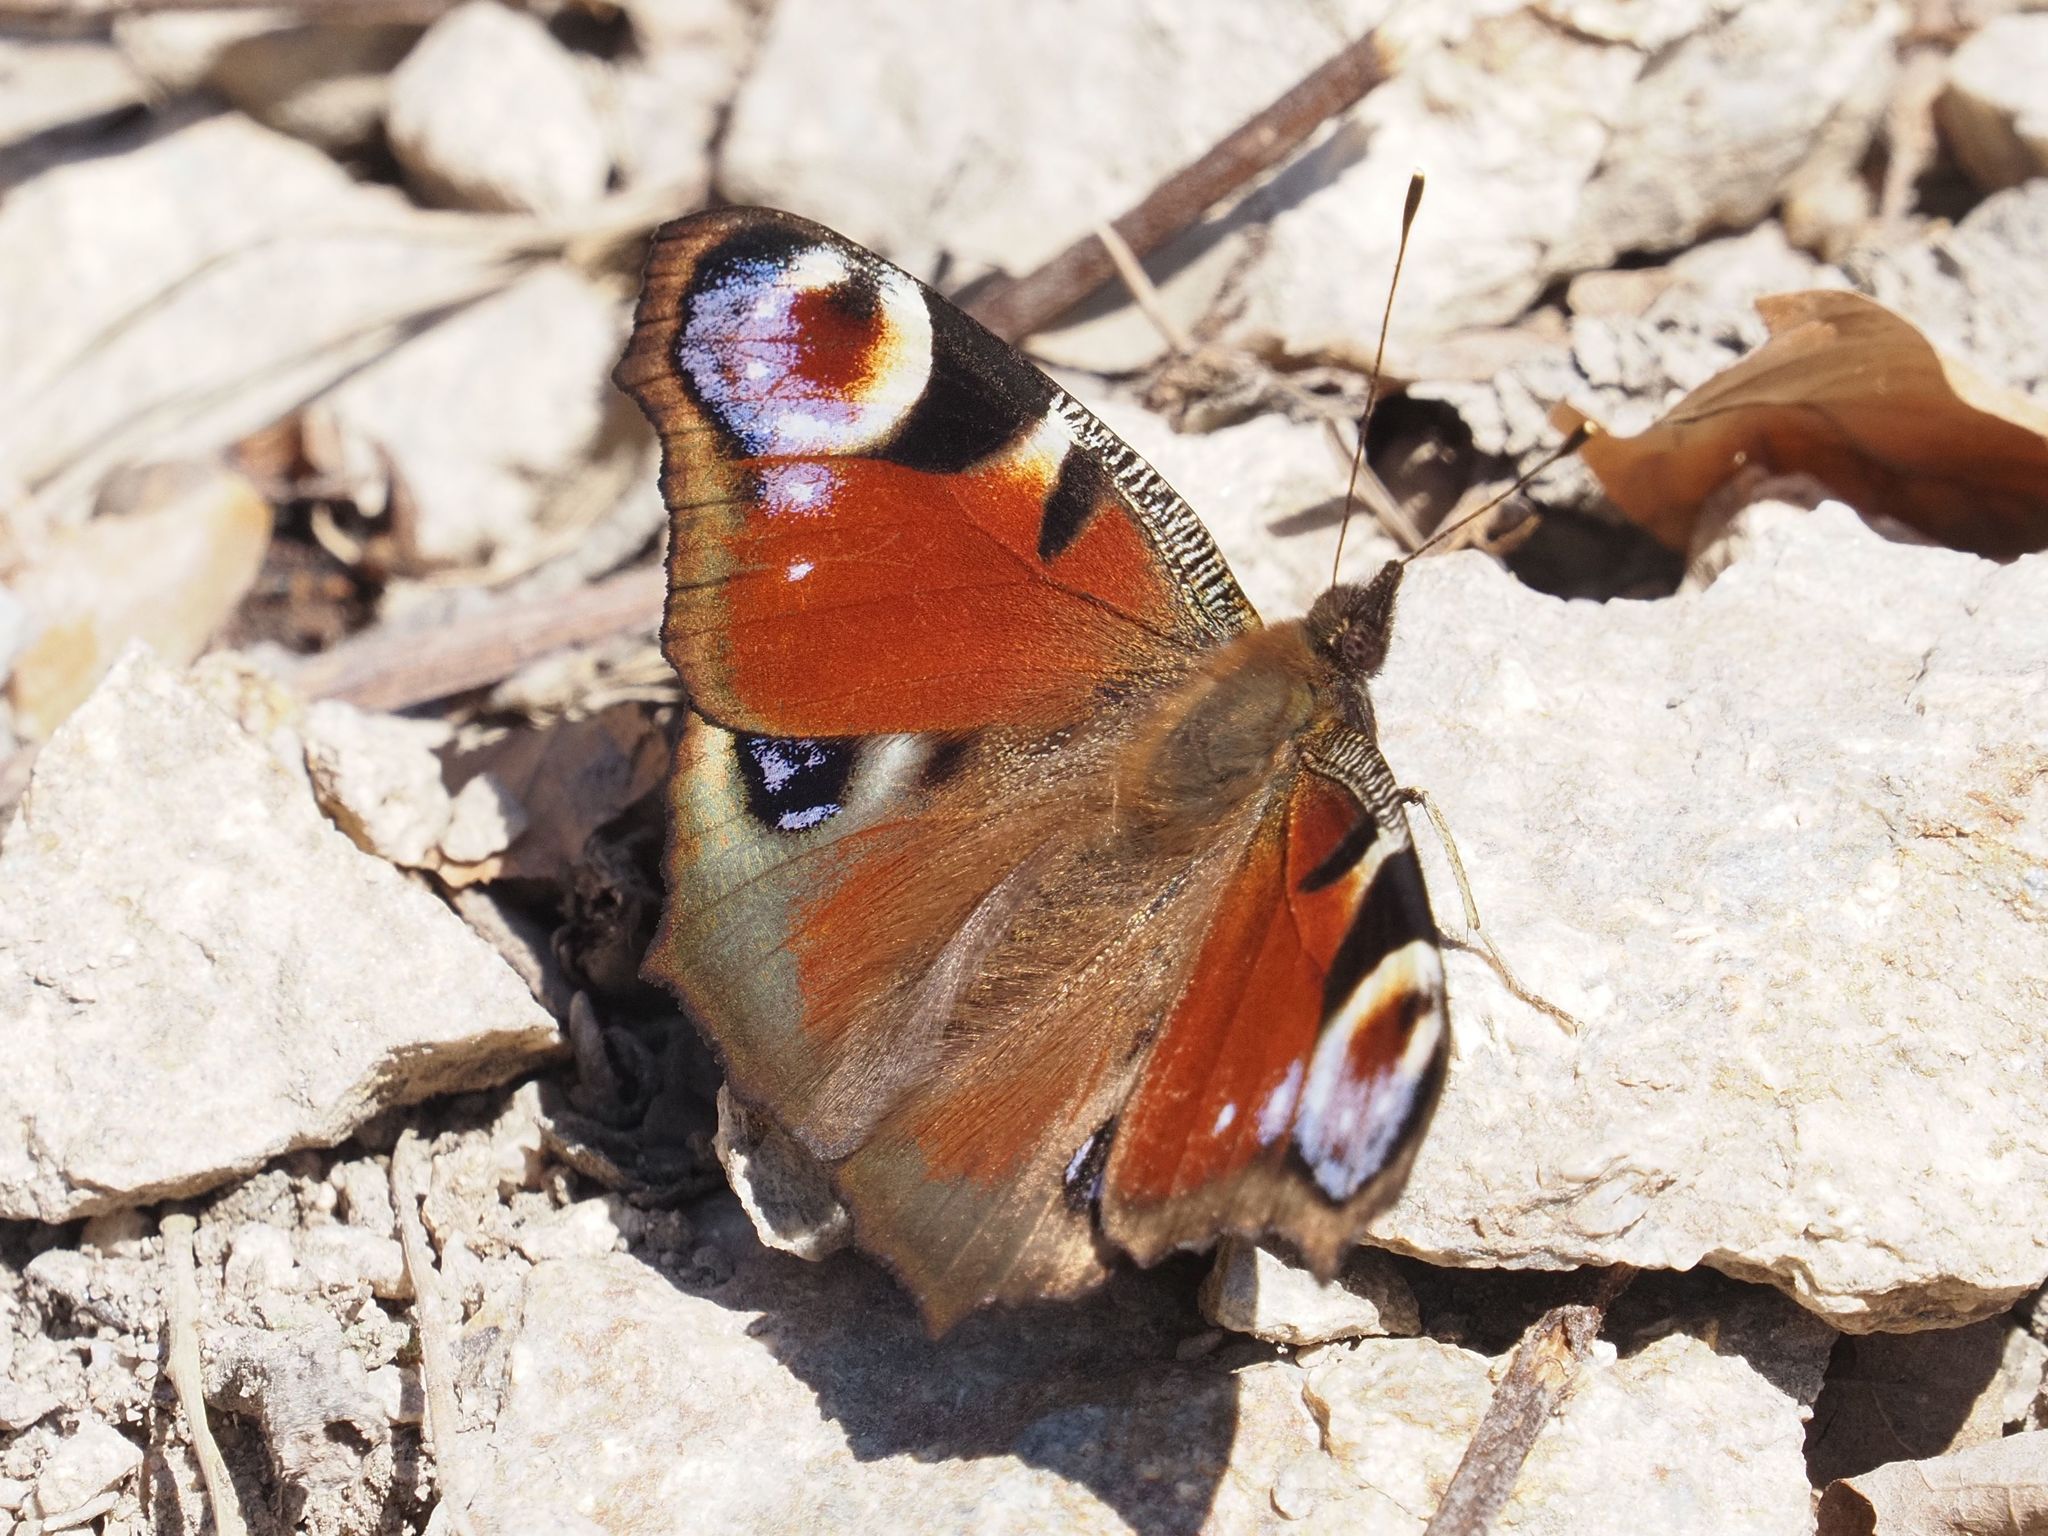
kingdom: Animalia
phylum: Arthropoda
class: Insecta
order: Lepidoptera
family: Nymphalidae
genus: Aglais
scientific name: Aglais io
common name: Peacock
